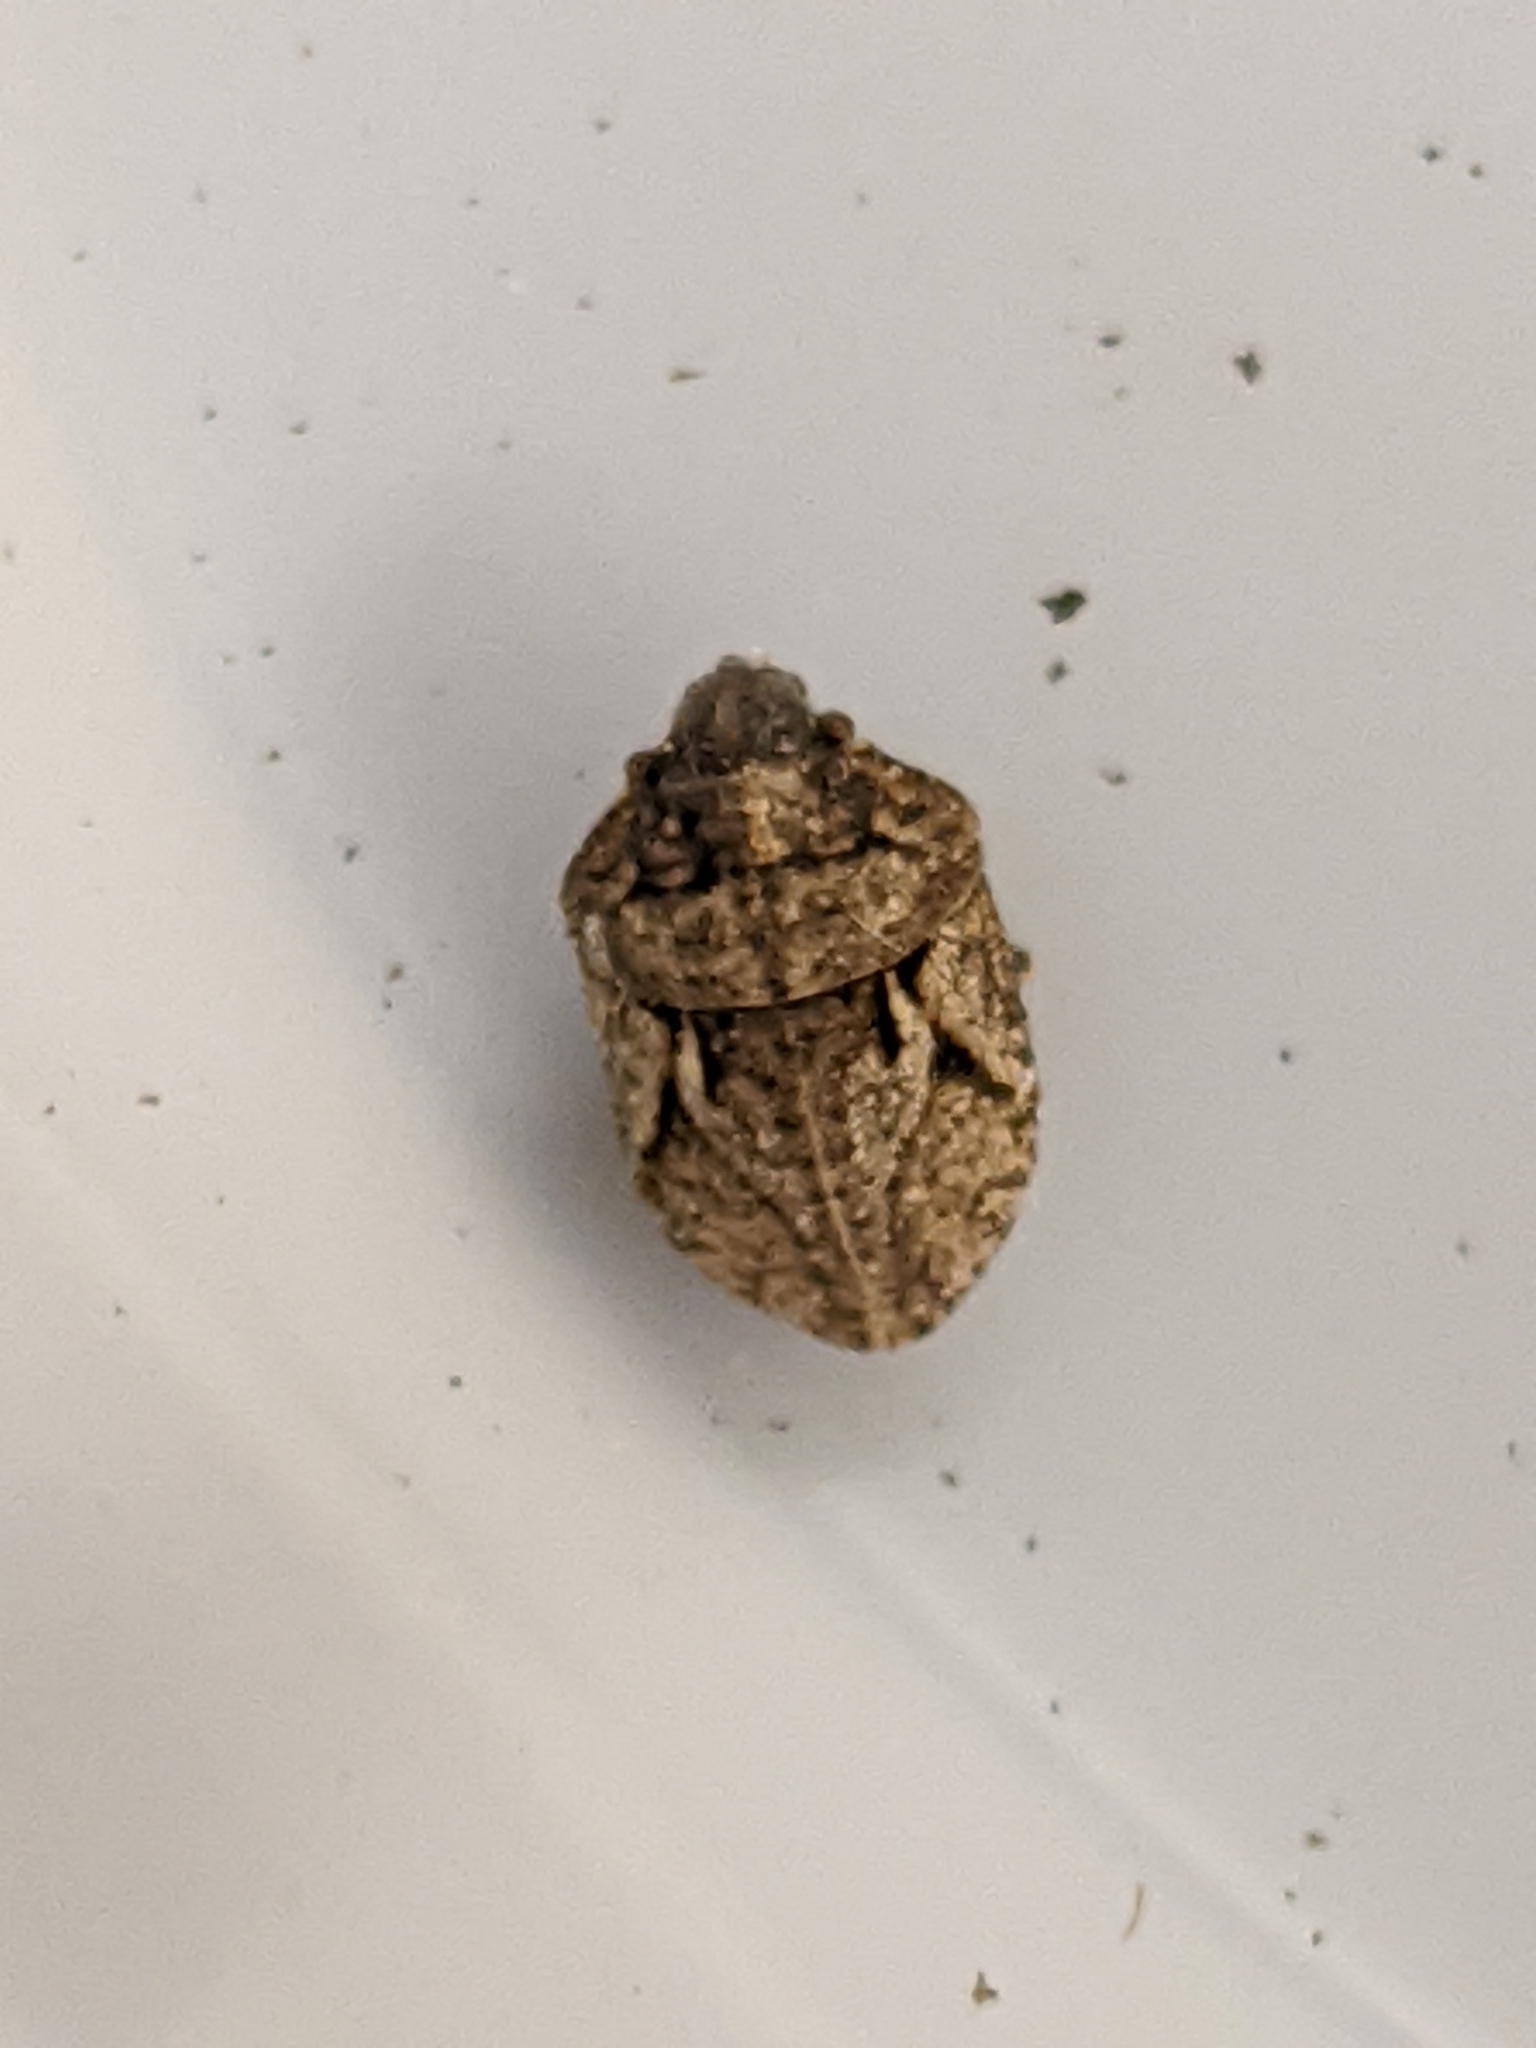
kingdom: Animalia
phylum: Arthropoda
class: Insecta
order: Hemiptera
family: Scutelleridae
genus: Phimodera
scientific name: Phimodera binotata
